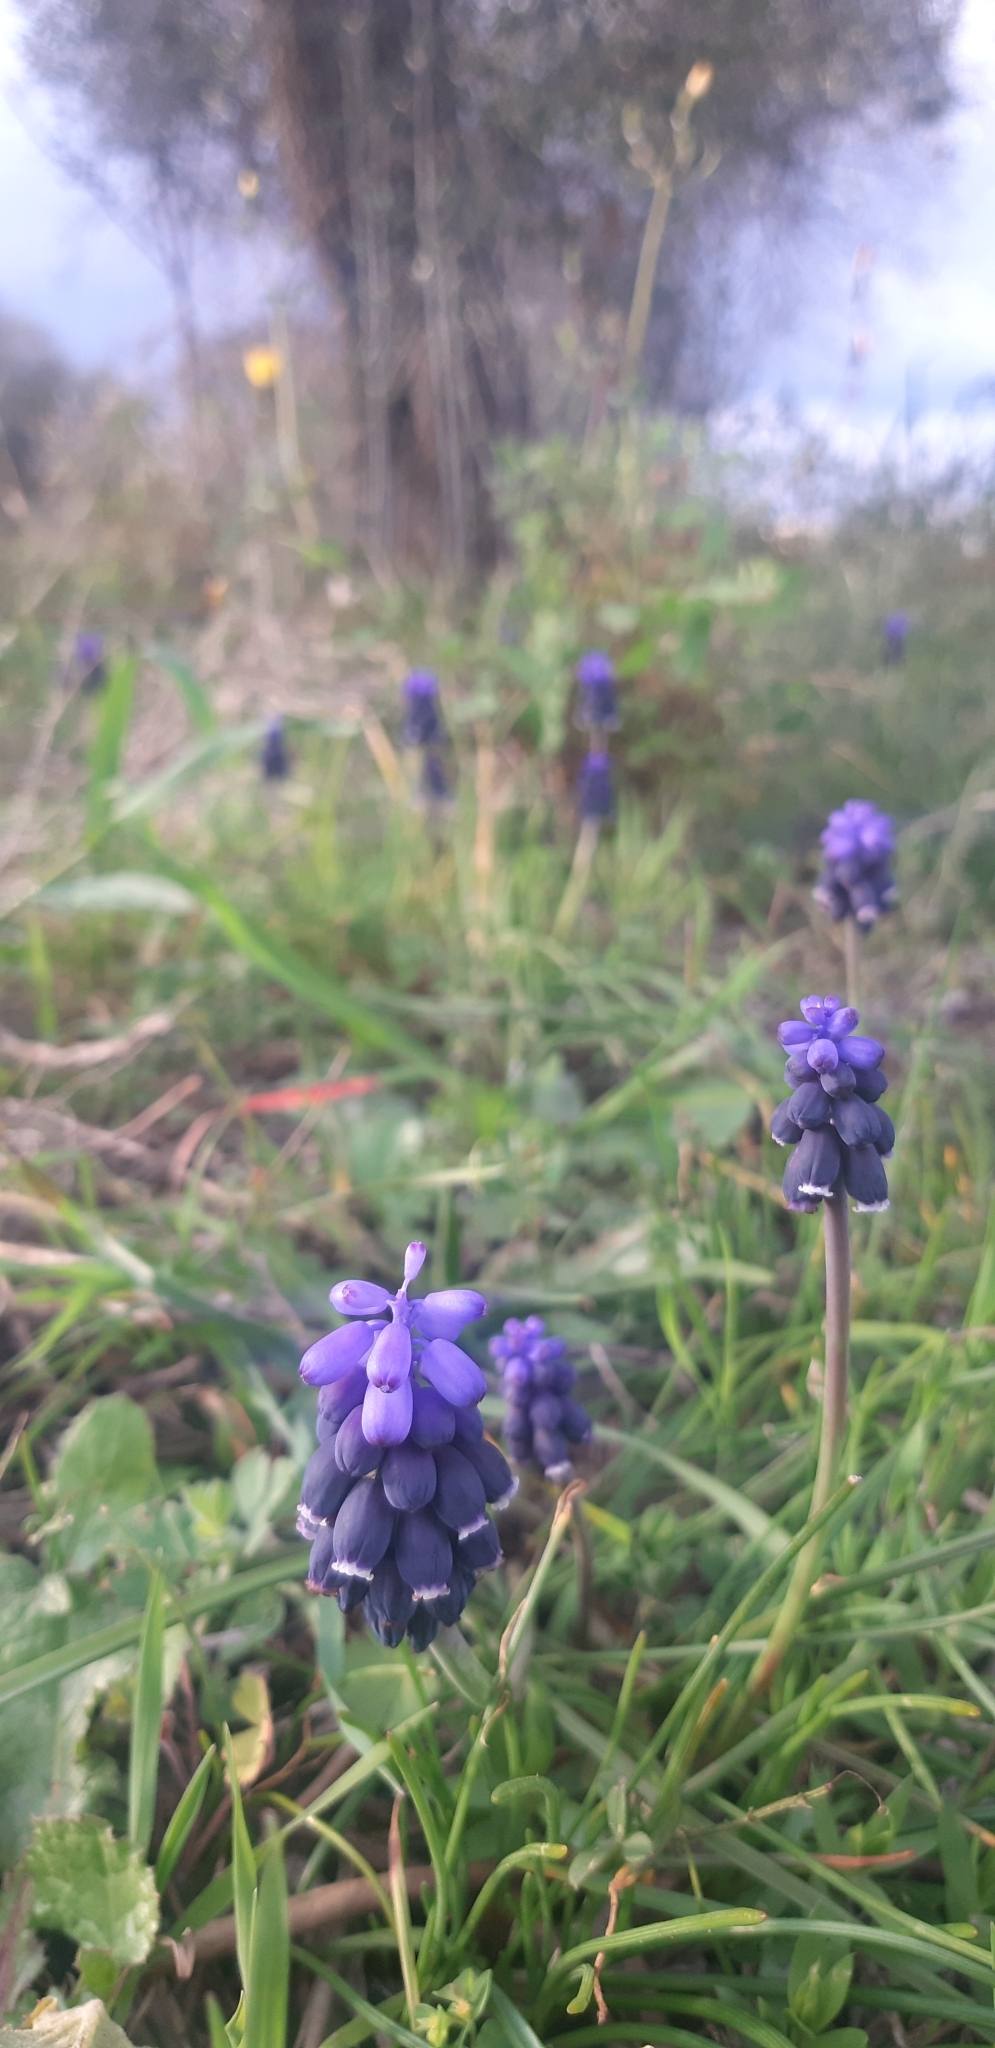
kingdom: Plantae
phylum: Tracheophyta
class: Liliopsida
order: Asparagales
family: Asparagaceae
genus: Muscari
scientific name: Muscari neglectum
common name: Grape-hyacinth
